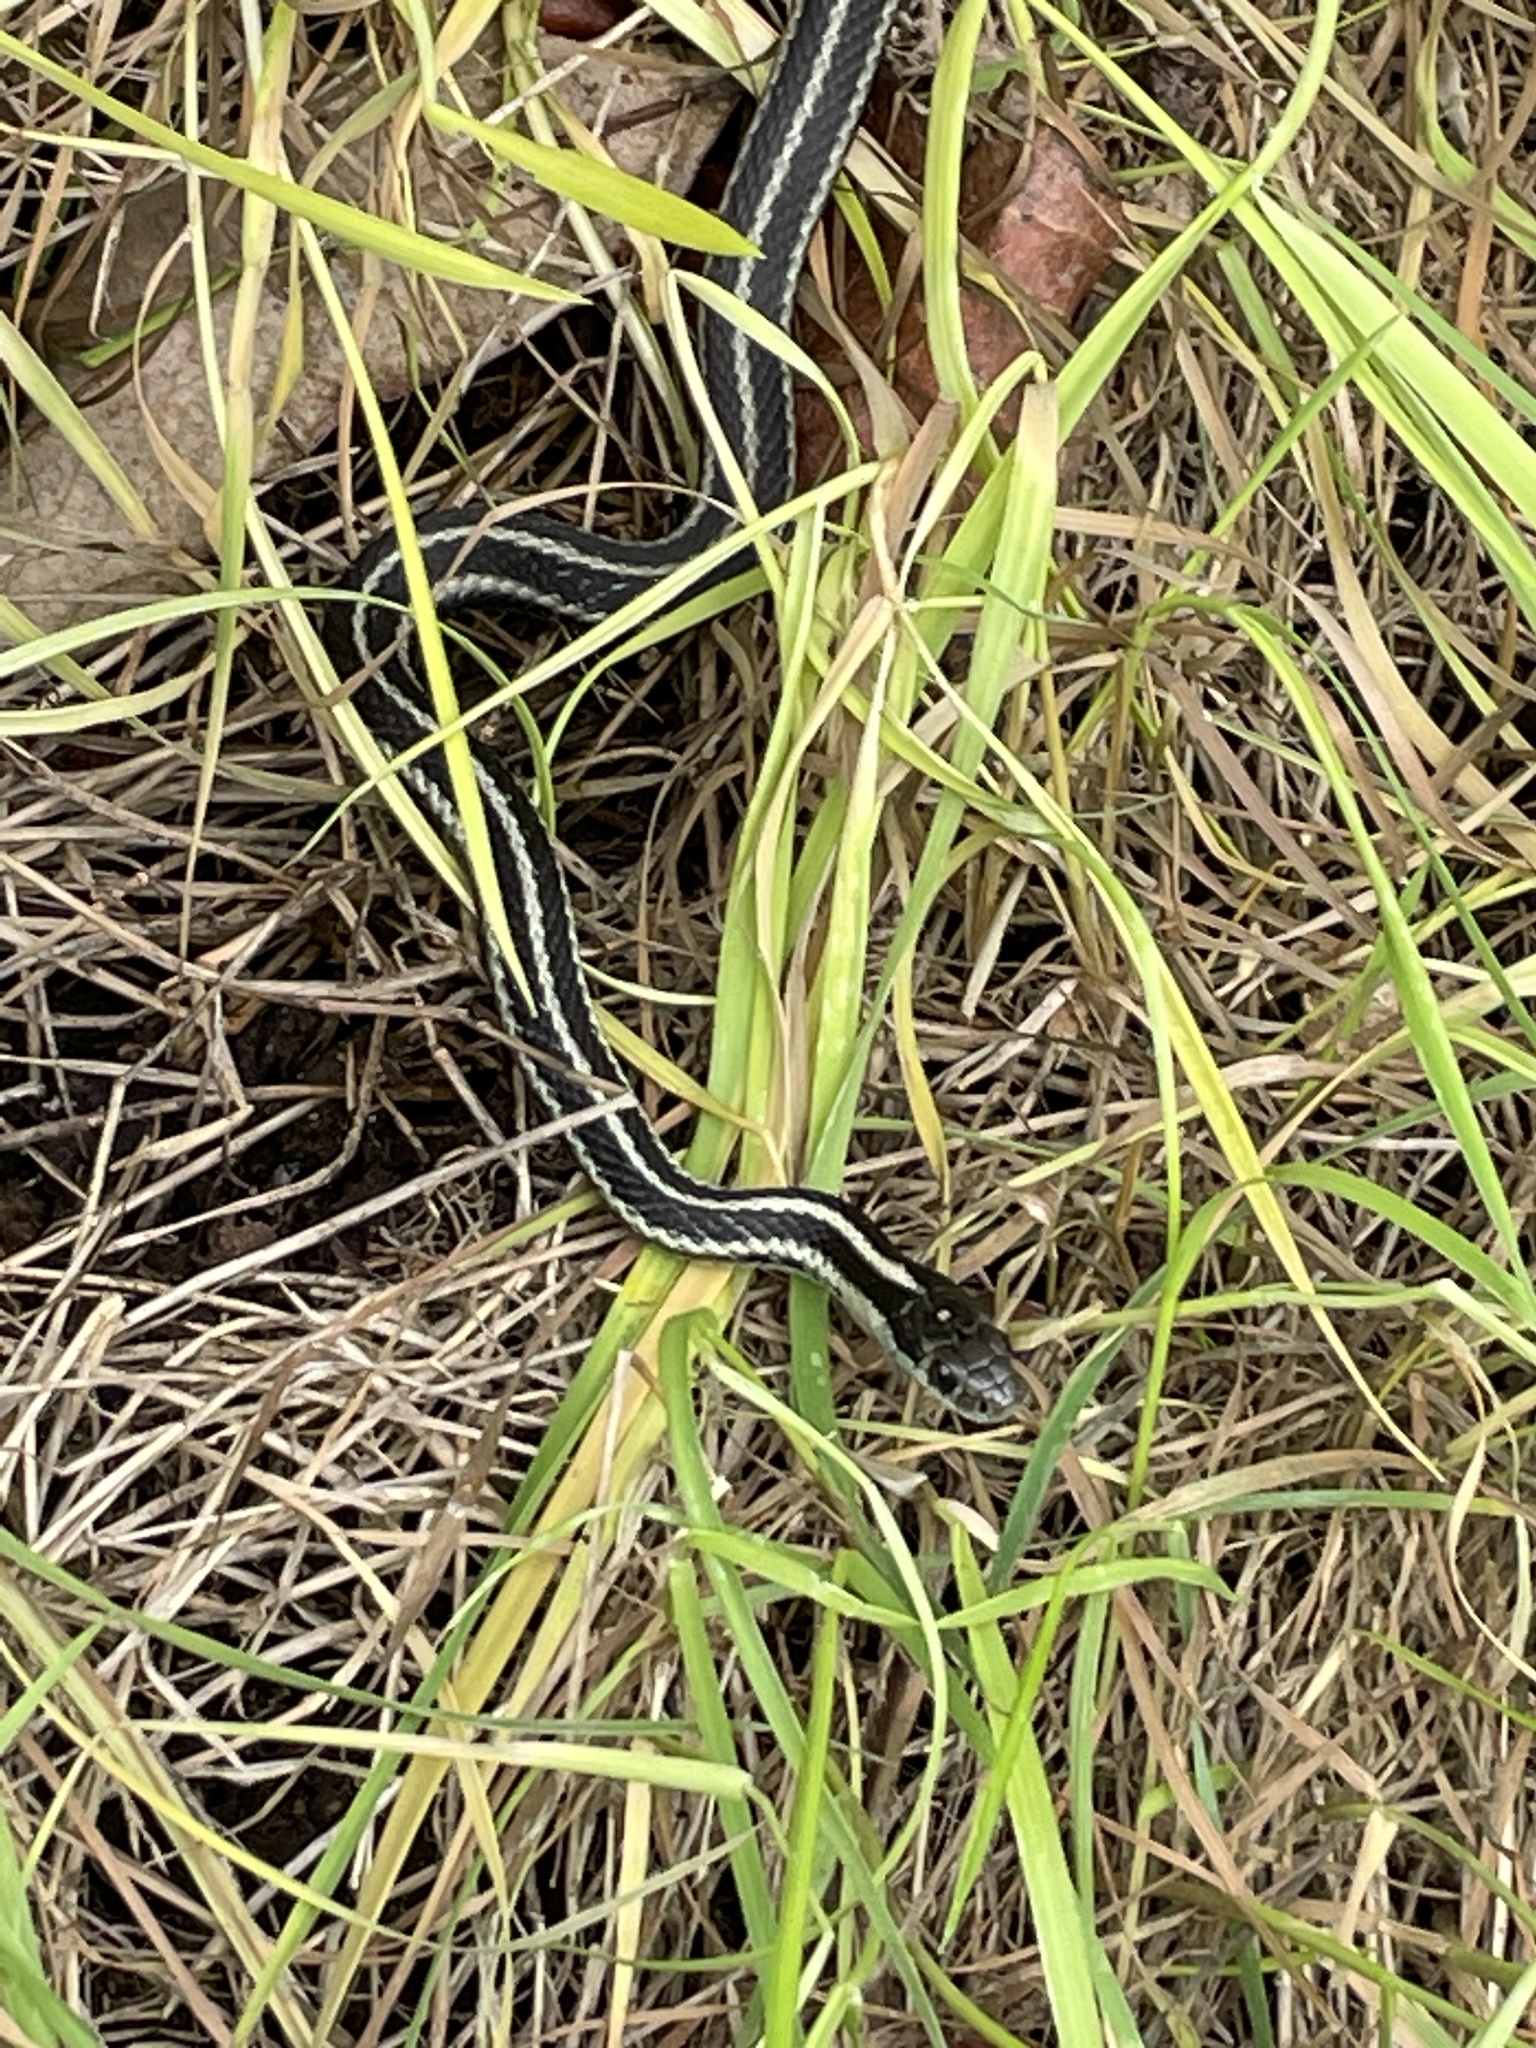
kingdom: Animalia
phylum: Chordata
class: Squamata
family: Colubridae
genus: Thamnophis
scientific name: Thamnophis ordinoides
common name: Northwestern garter snake
